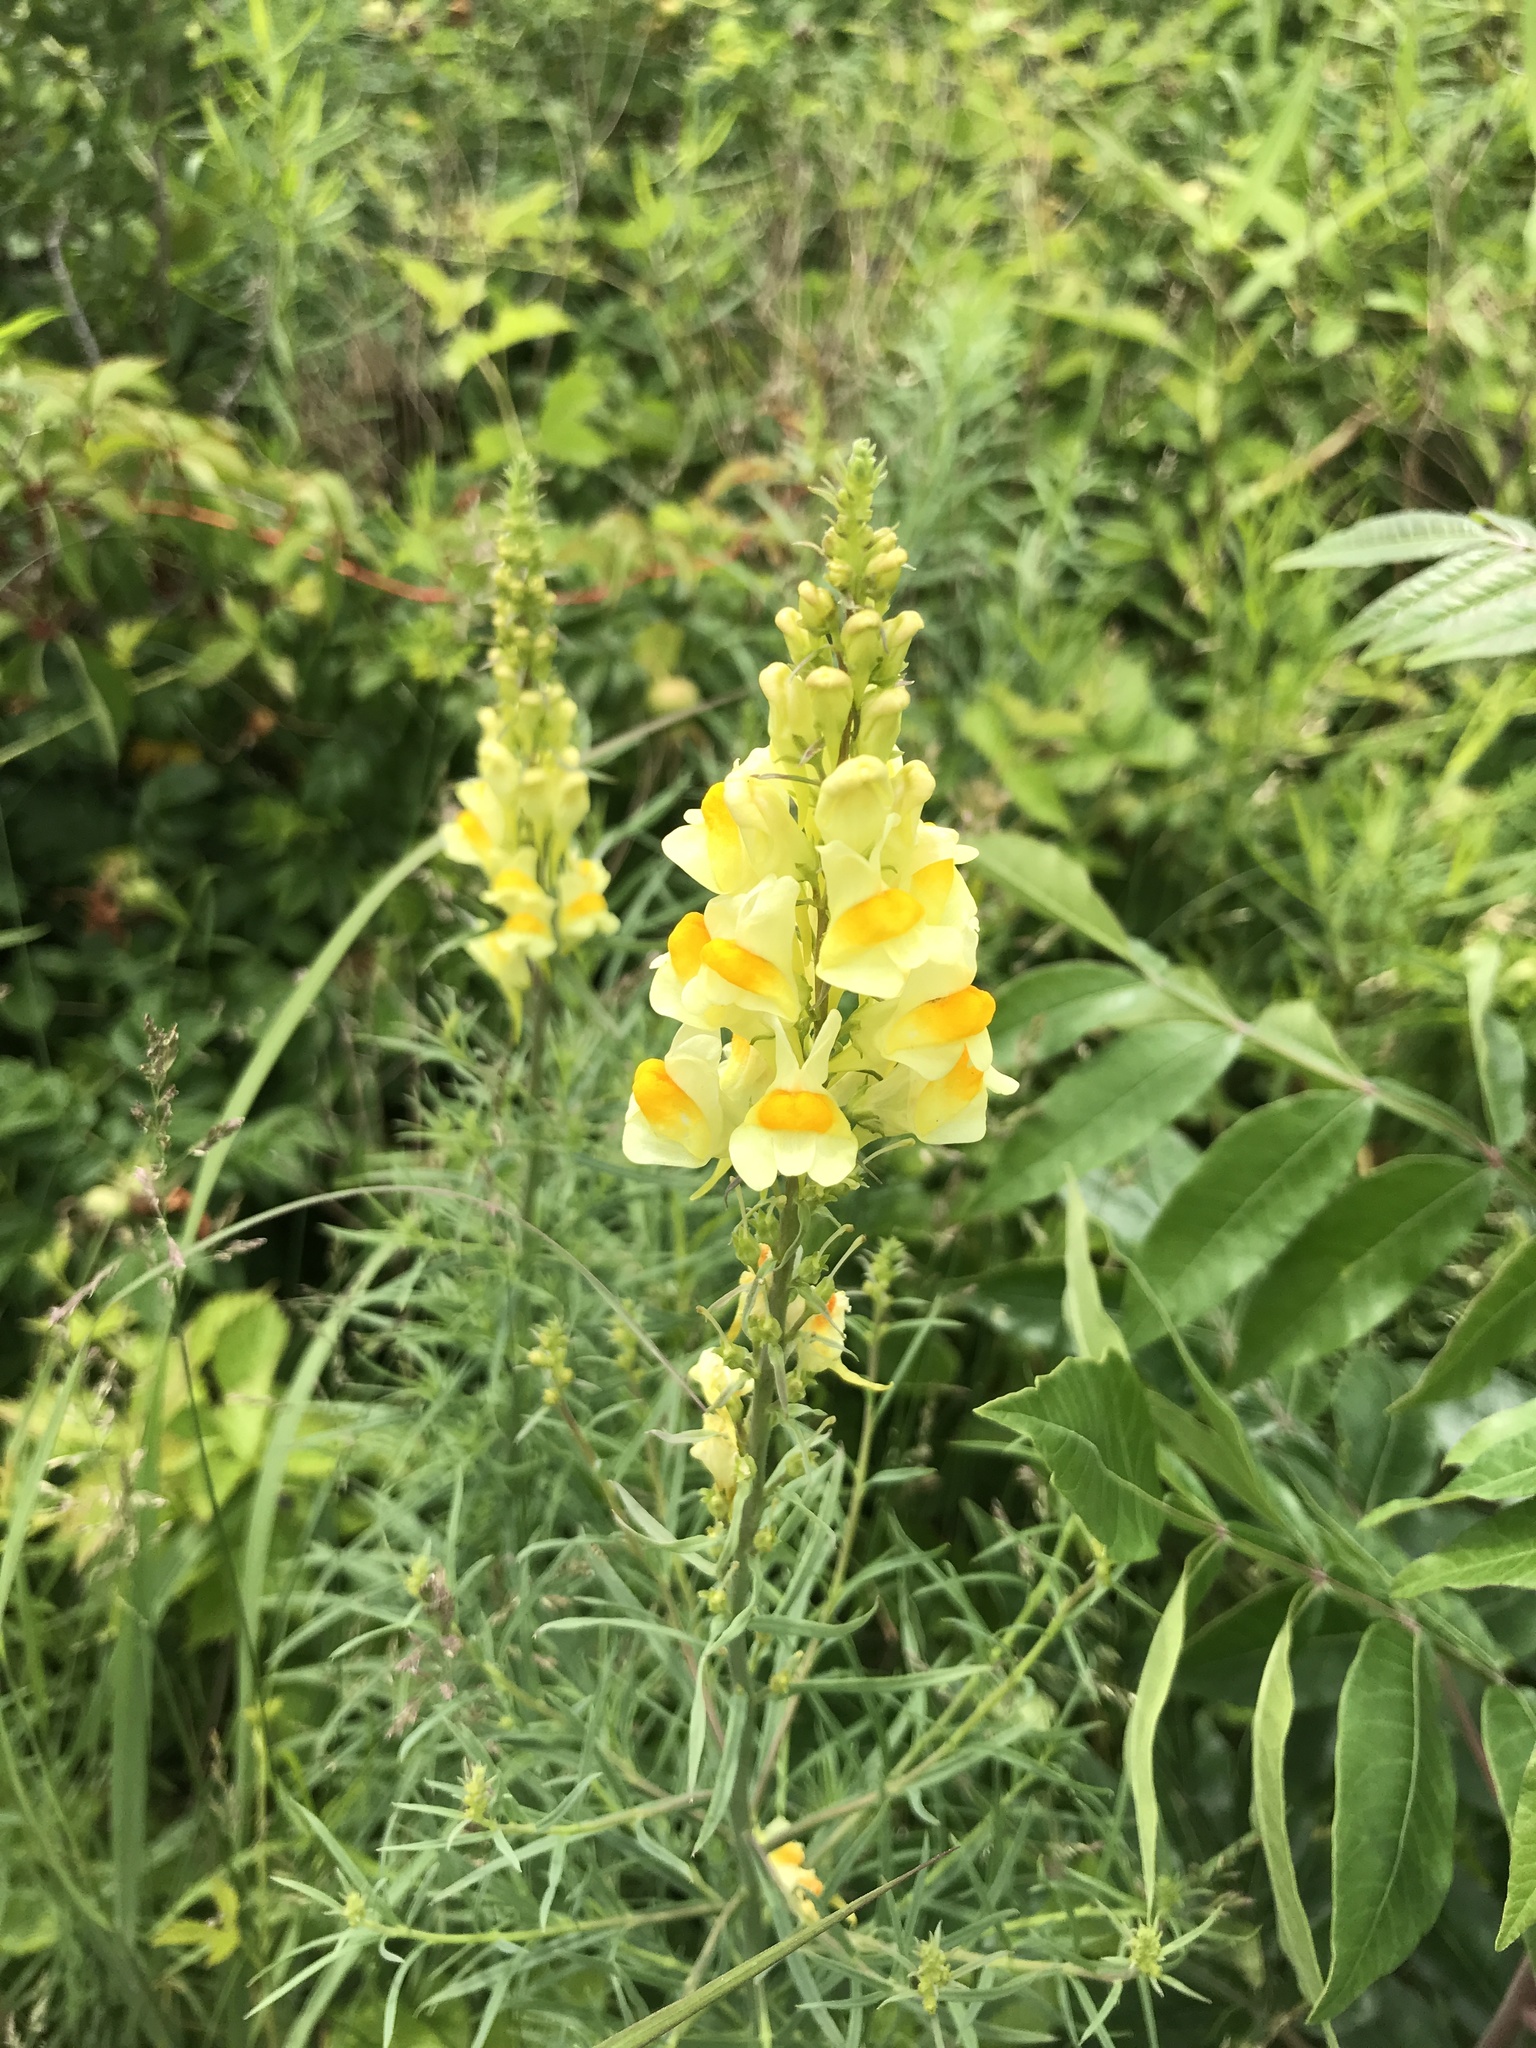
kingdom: Plantae
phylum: Tracheophyta
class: Magnoliopsida
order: Lamiales
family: Plantaginaceae
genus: Linaria
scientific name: Linaria vulgaris
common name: Butter and eggs
